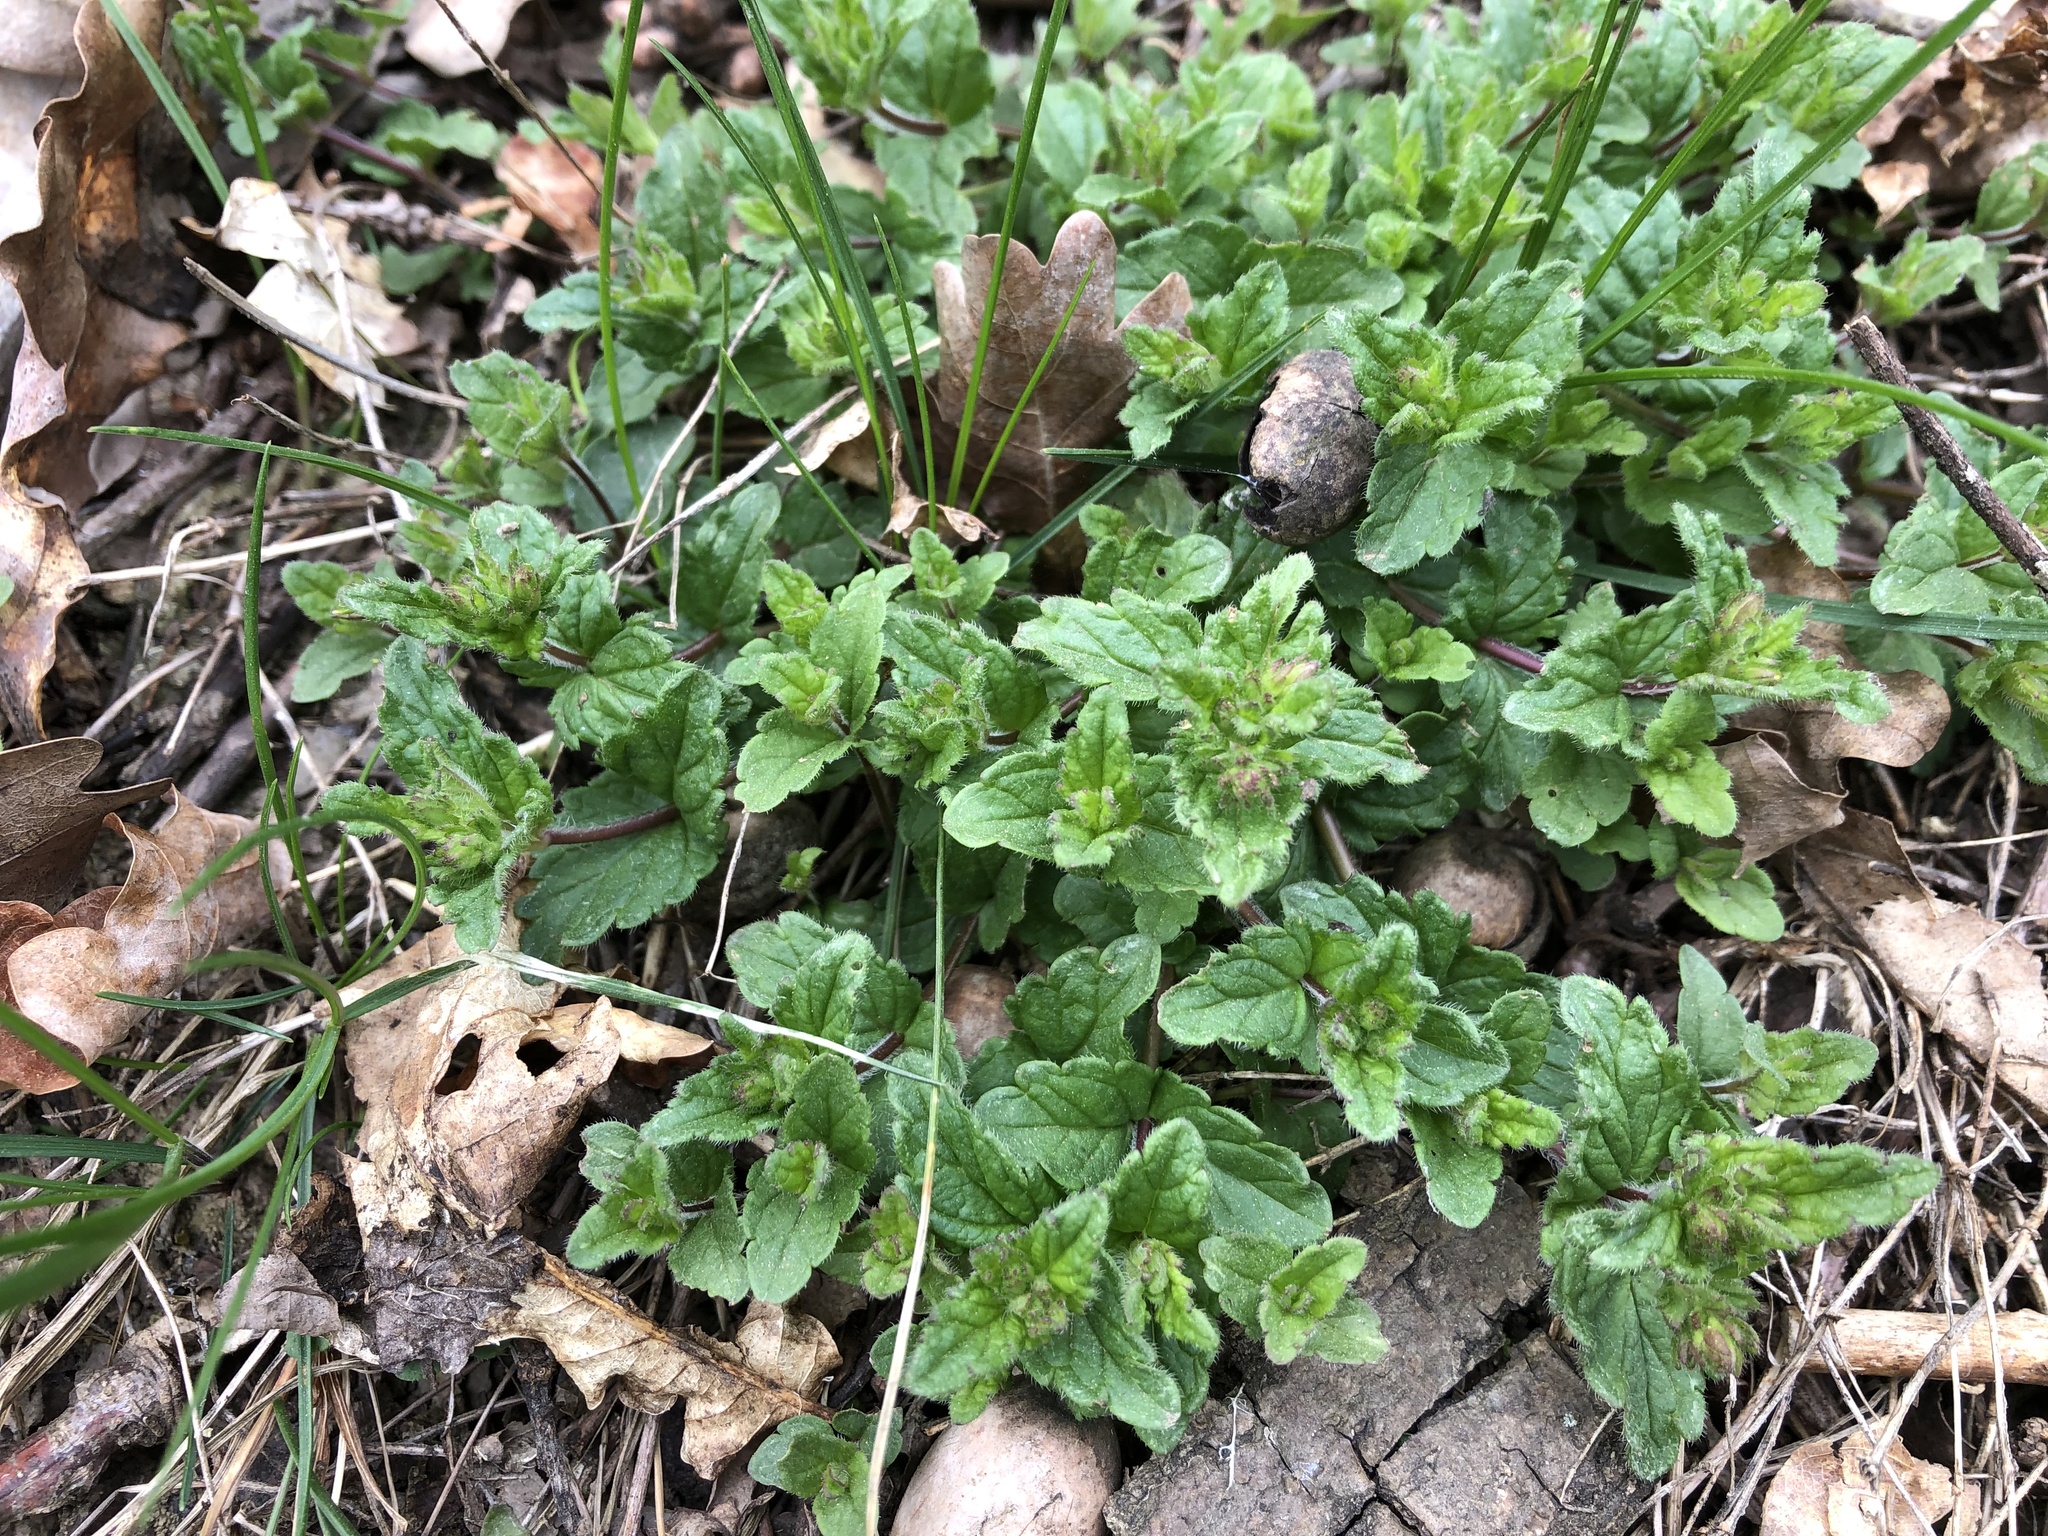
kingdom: Plantae
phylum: Tracheophyta
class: Magnoliopsida
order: Lamiales
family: Plantaginaceae
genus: Veronica
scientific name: Veronica chamaedrys
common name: Germander speedwell
